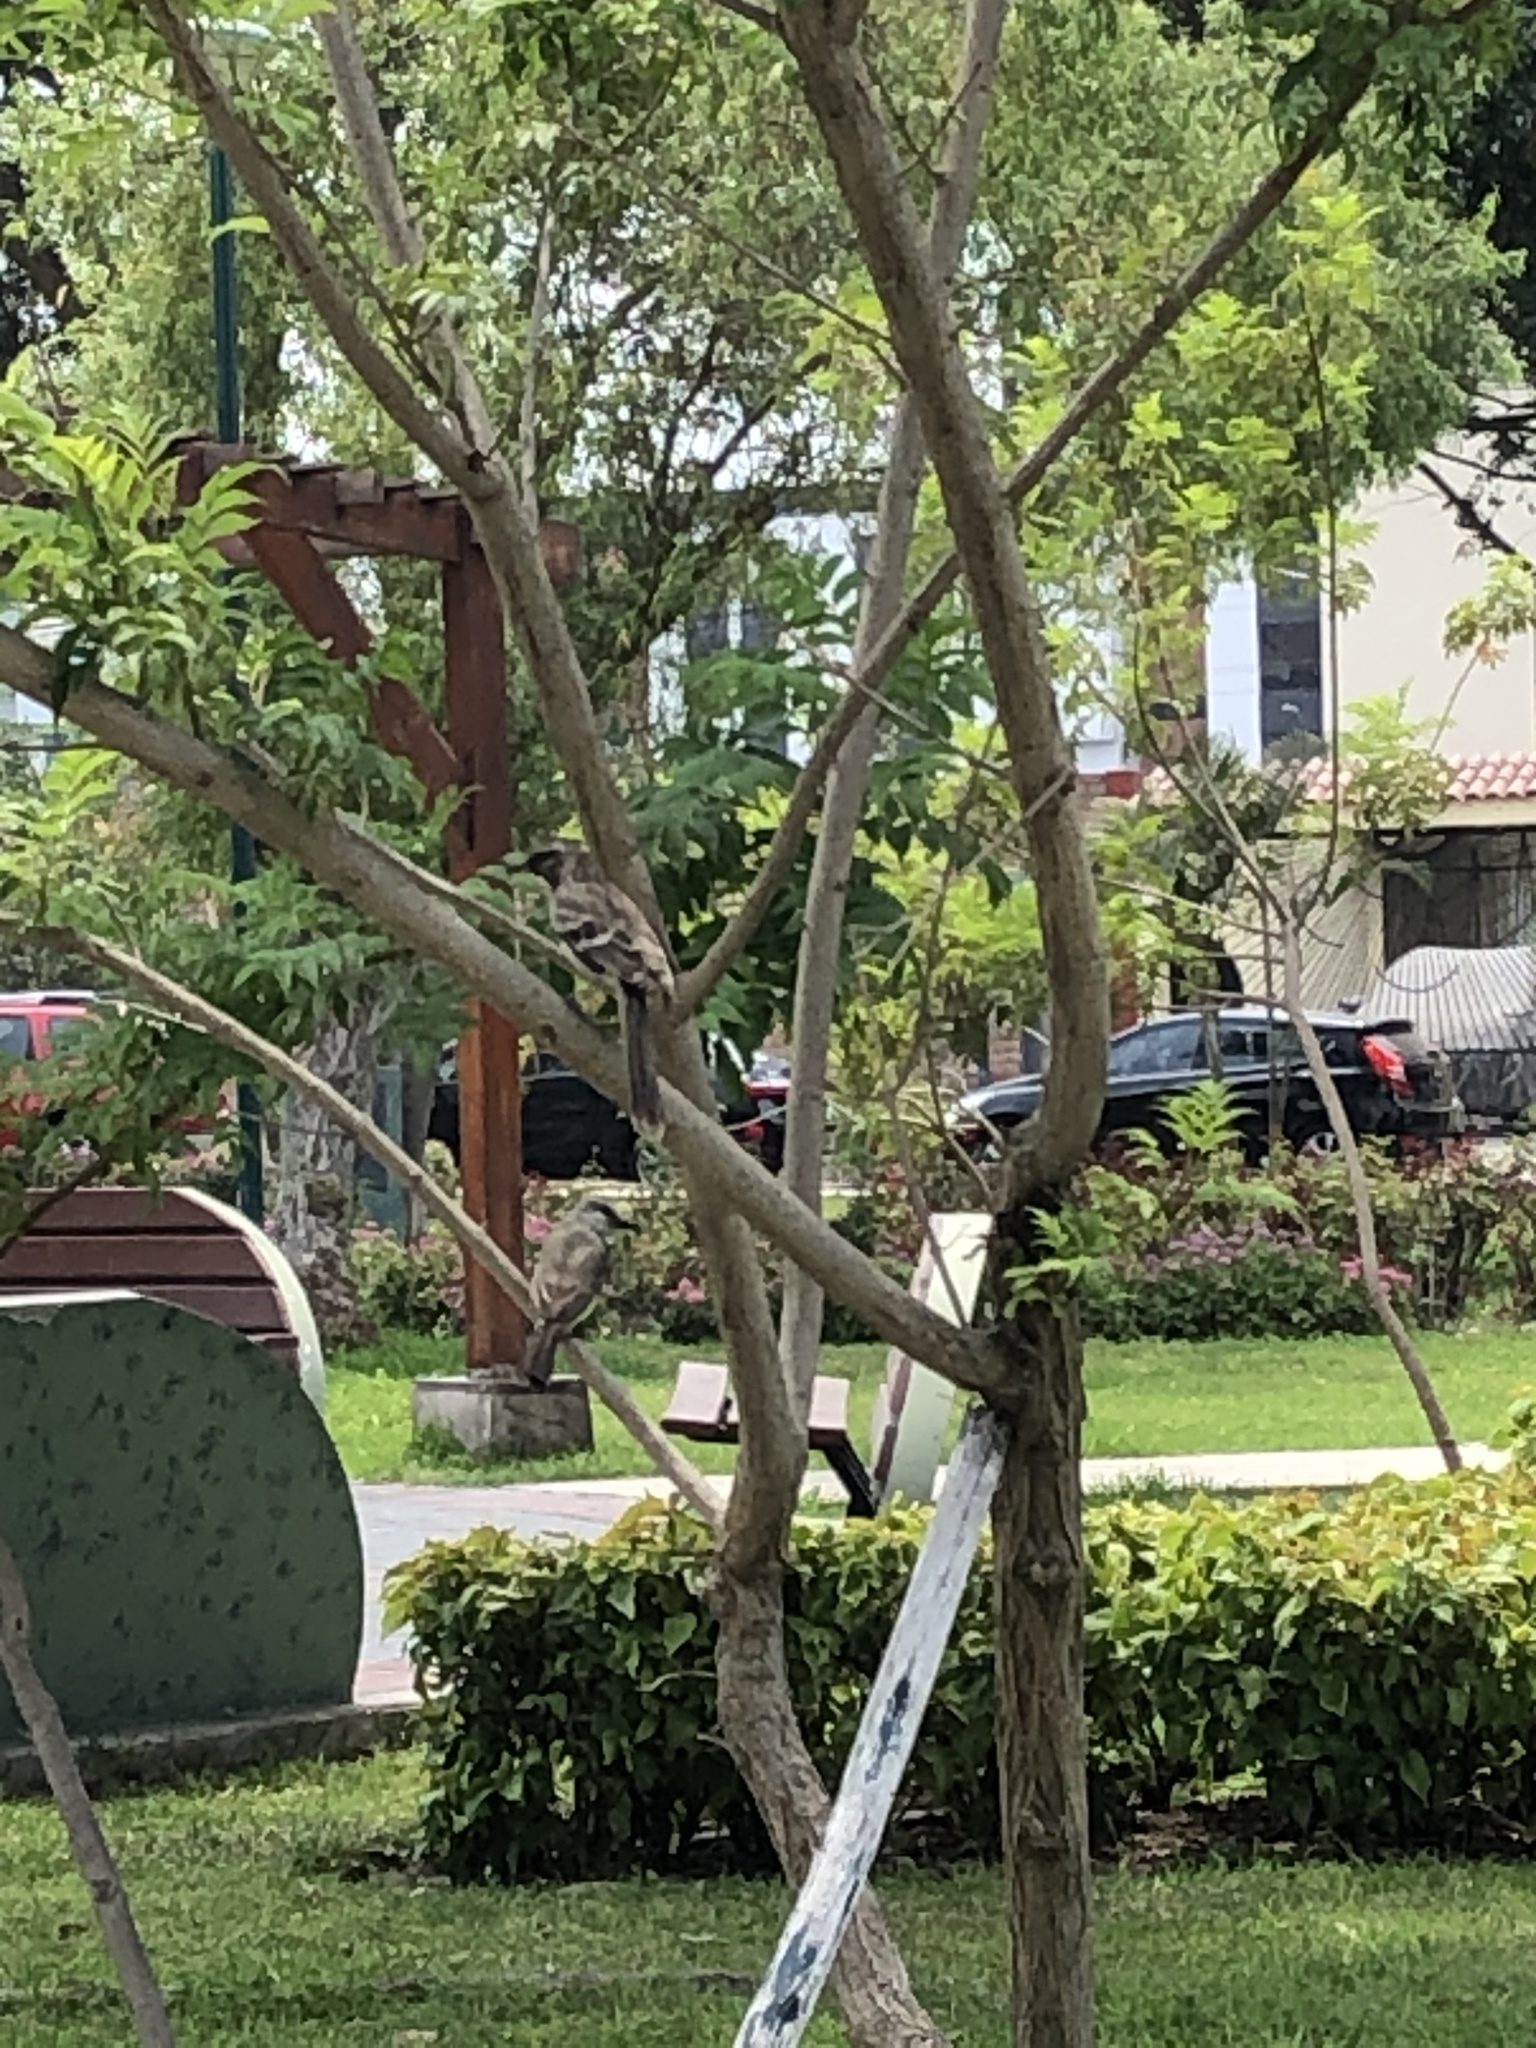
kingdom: Animalia
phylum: Chordata
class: Aves
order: Passeriformes
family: Mimidae
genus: Mimus
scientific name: Mimus longicaudatus
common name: Long-tailed mockingbird
